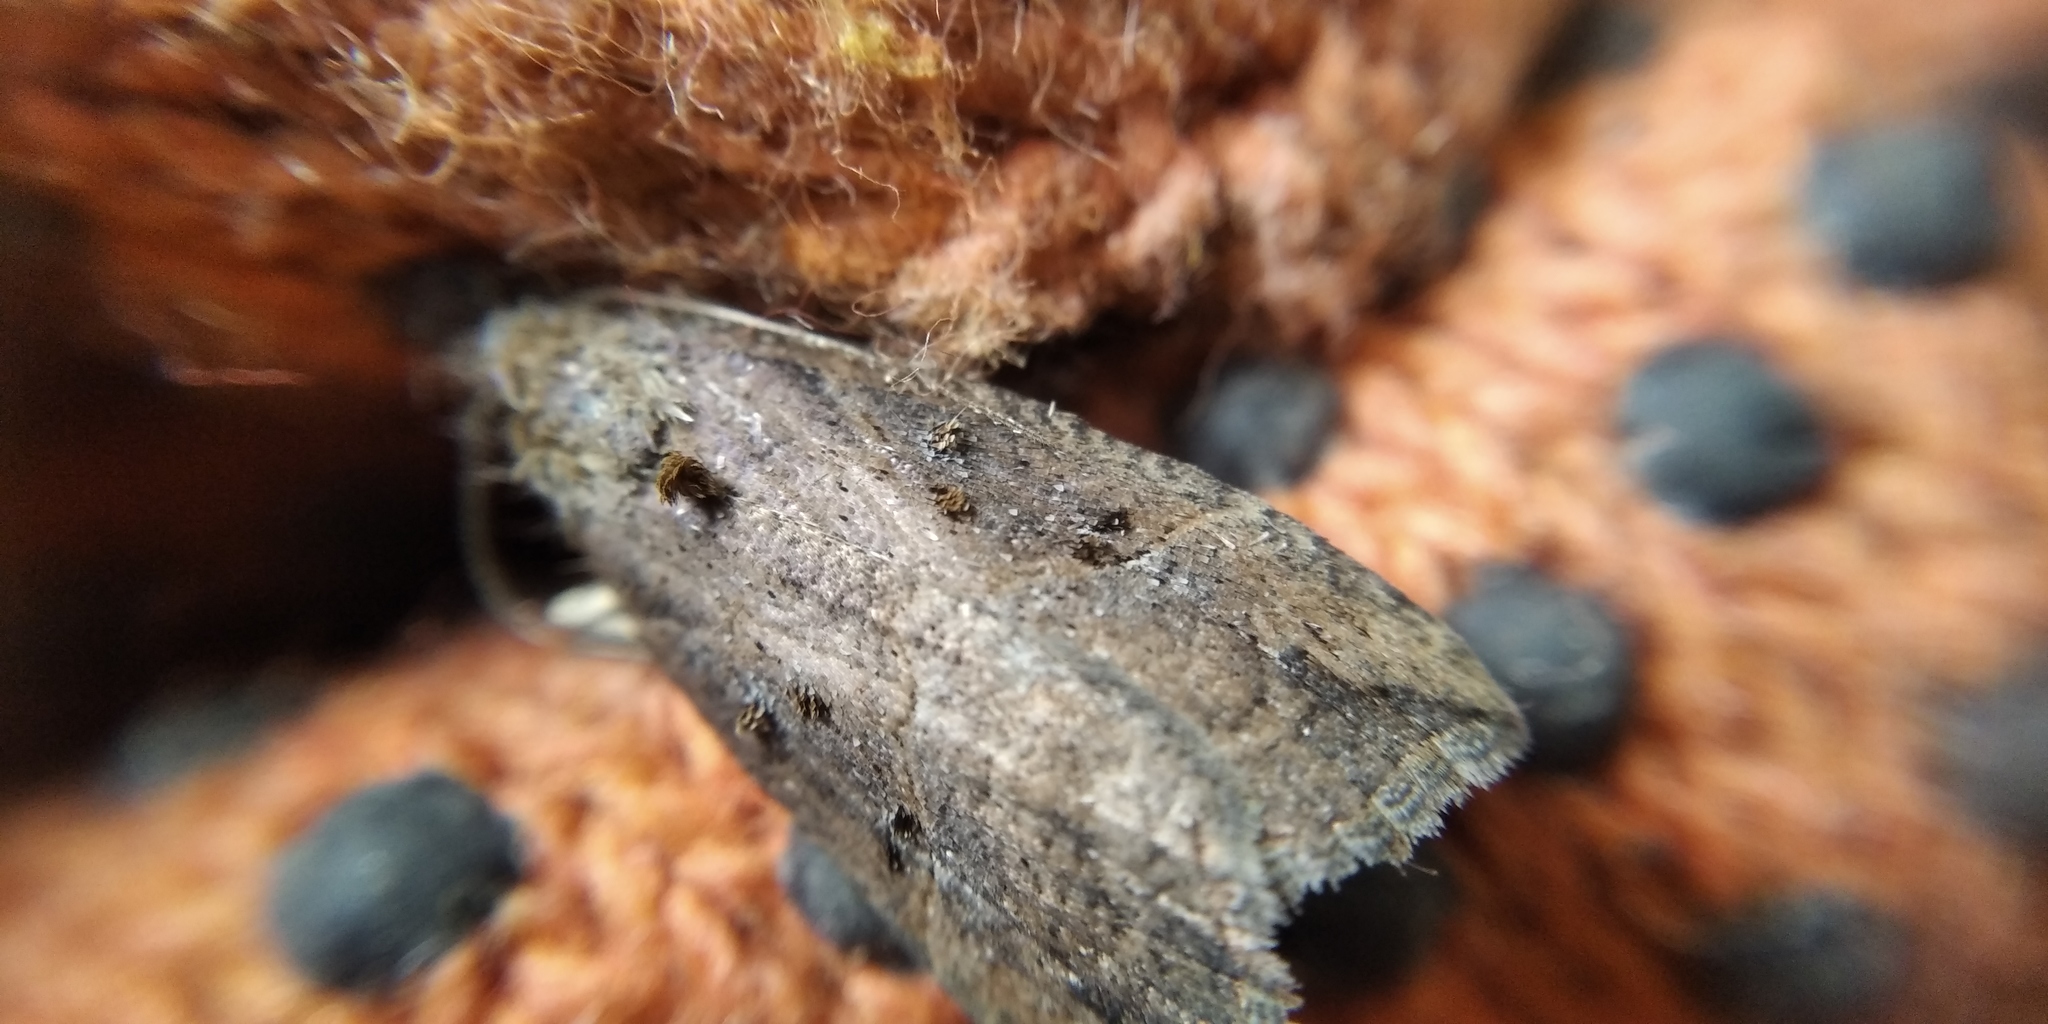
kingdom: Animalia
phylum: Arthropoda
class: Insecta
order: Lepidoptera
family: Erebidae
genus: Hypena
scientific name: Hypena rostralis
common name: Buttoned snout
